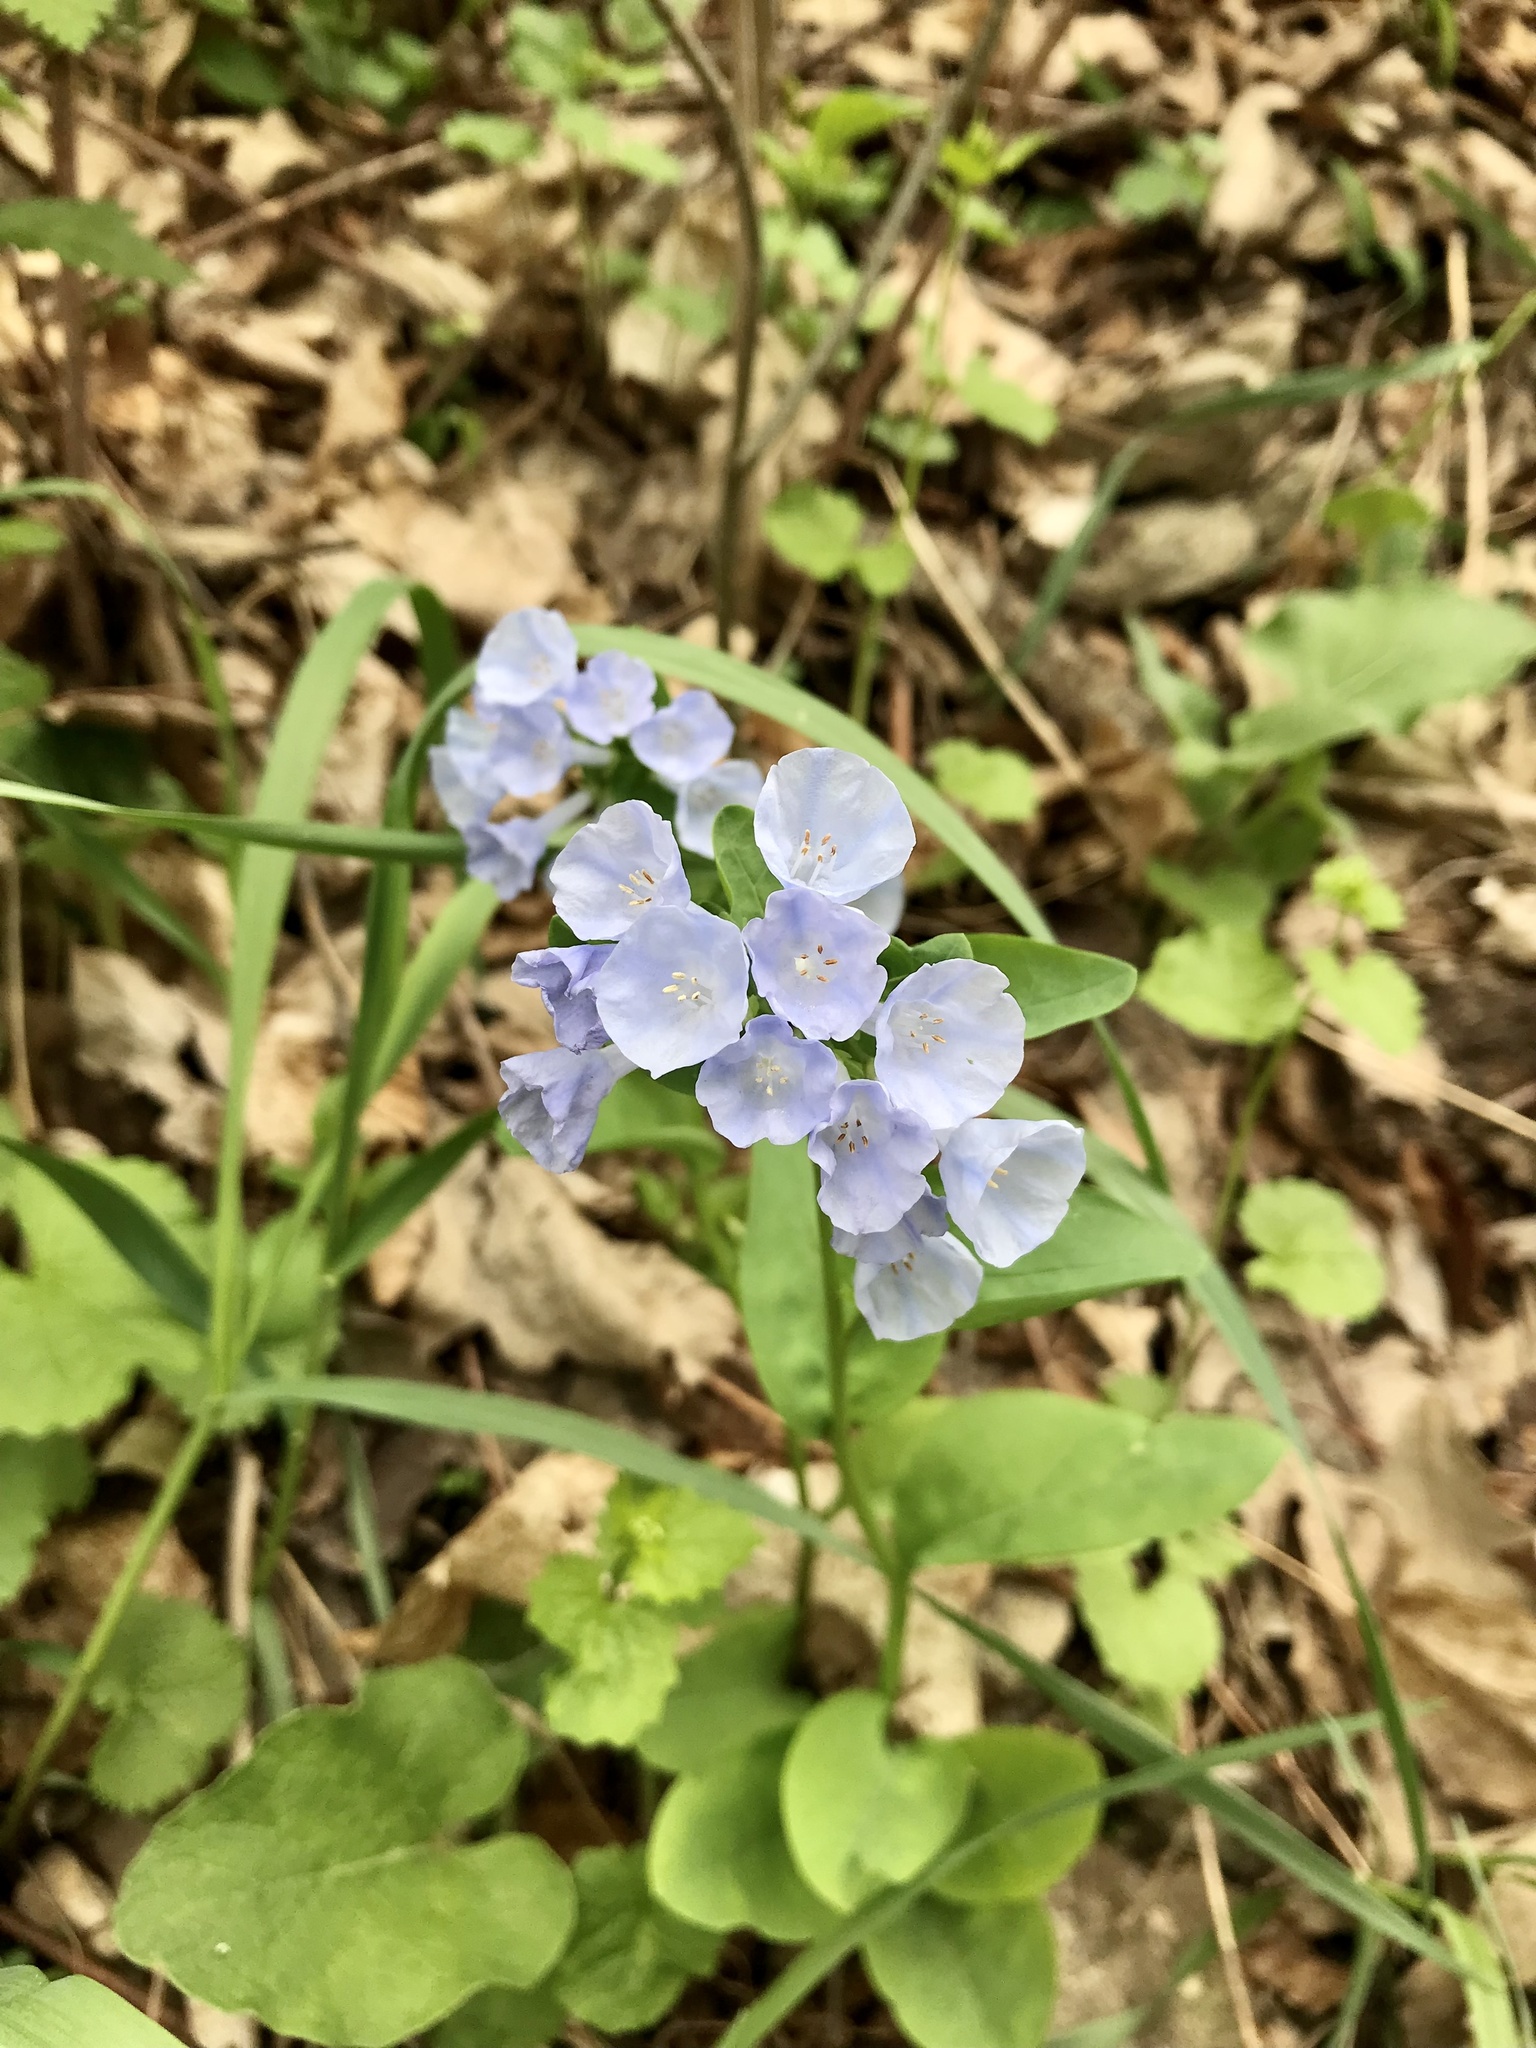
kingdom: Plantae
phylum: Tracheophyta
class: Magnoliopsida
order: Boraginales
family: Boraginaceae
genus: Mertensia
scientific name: Mertensia virginica
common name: Virginia bluebells
